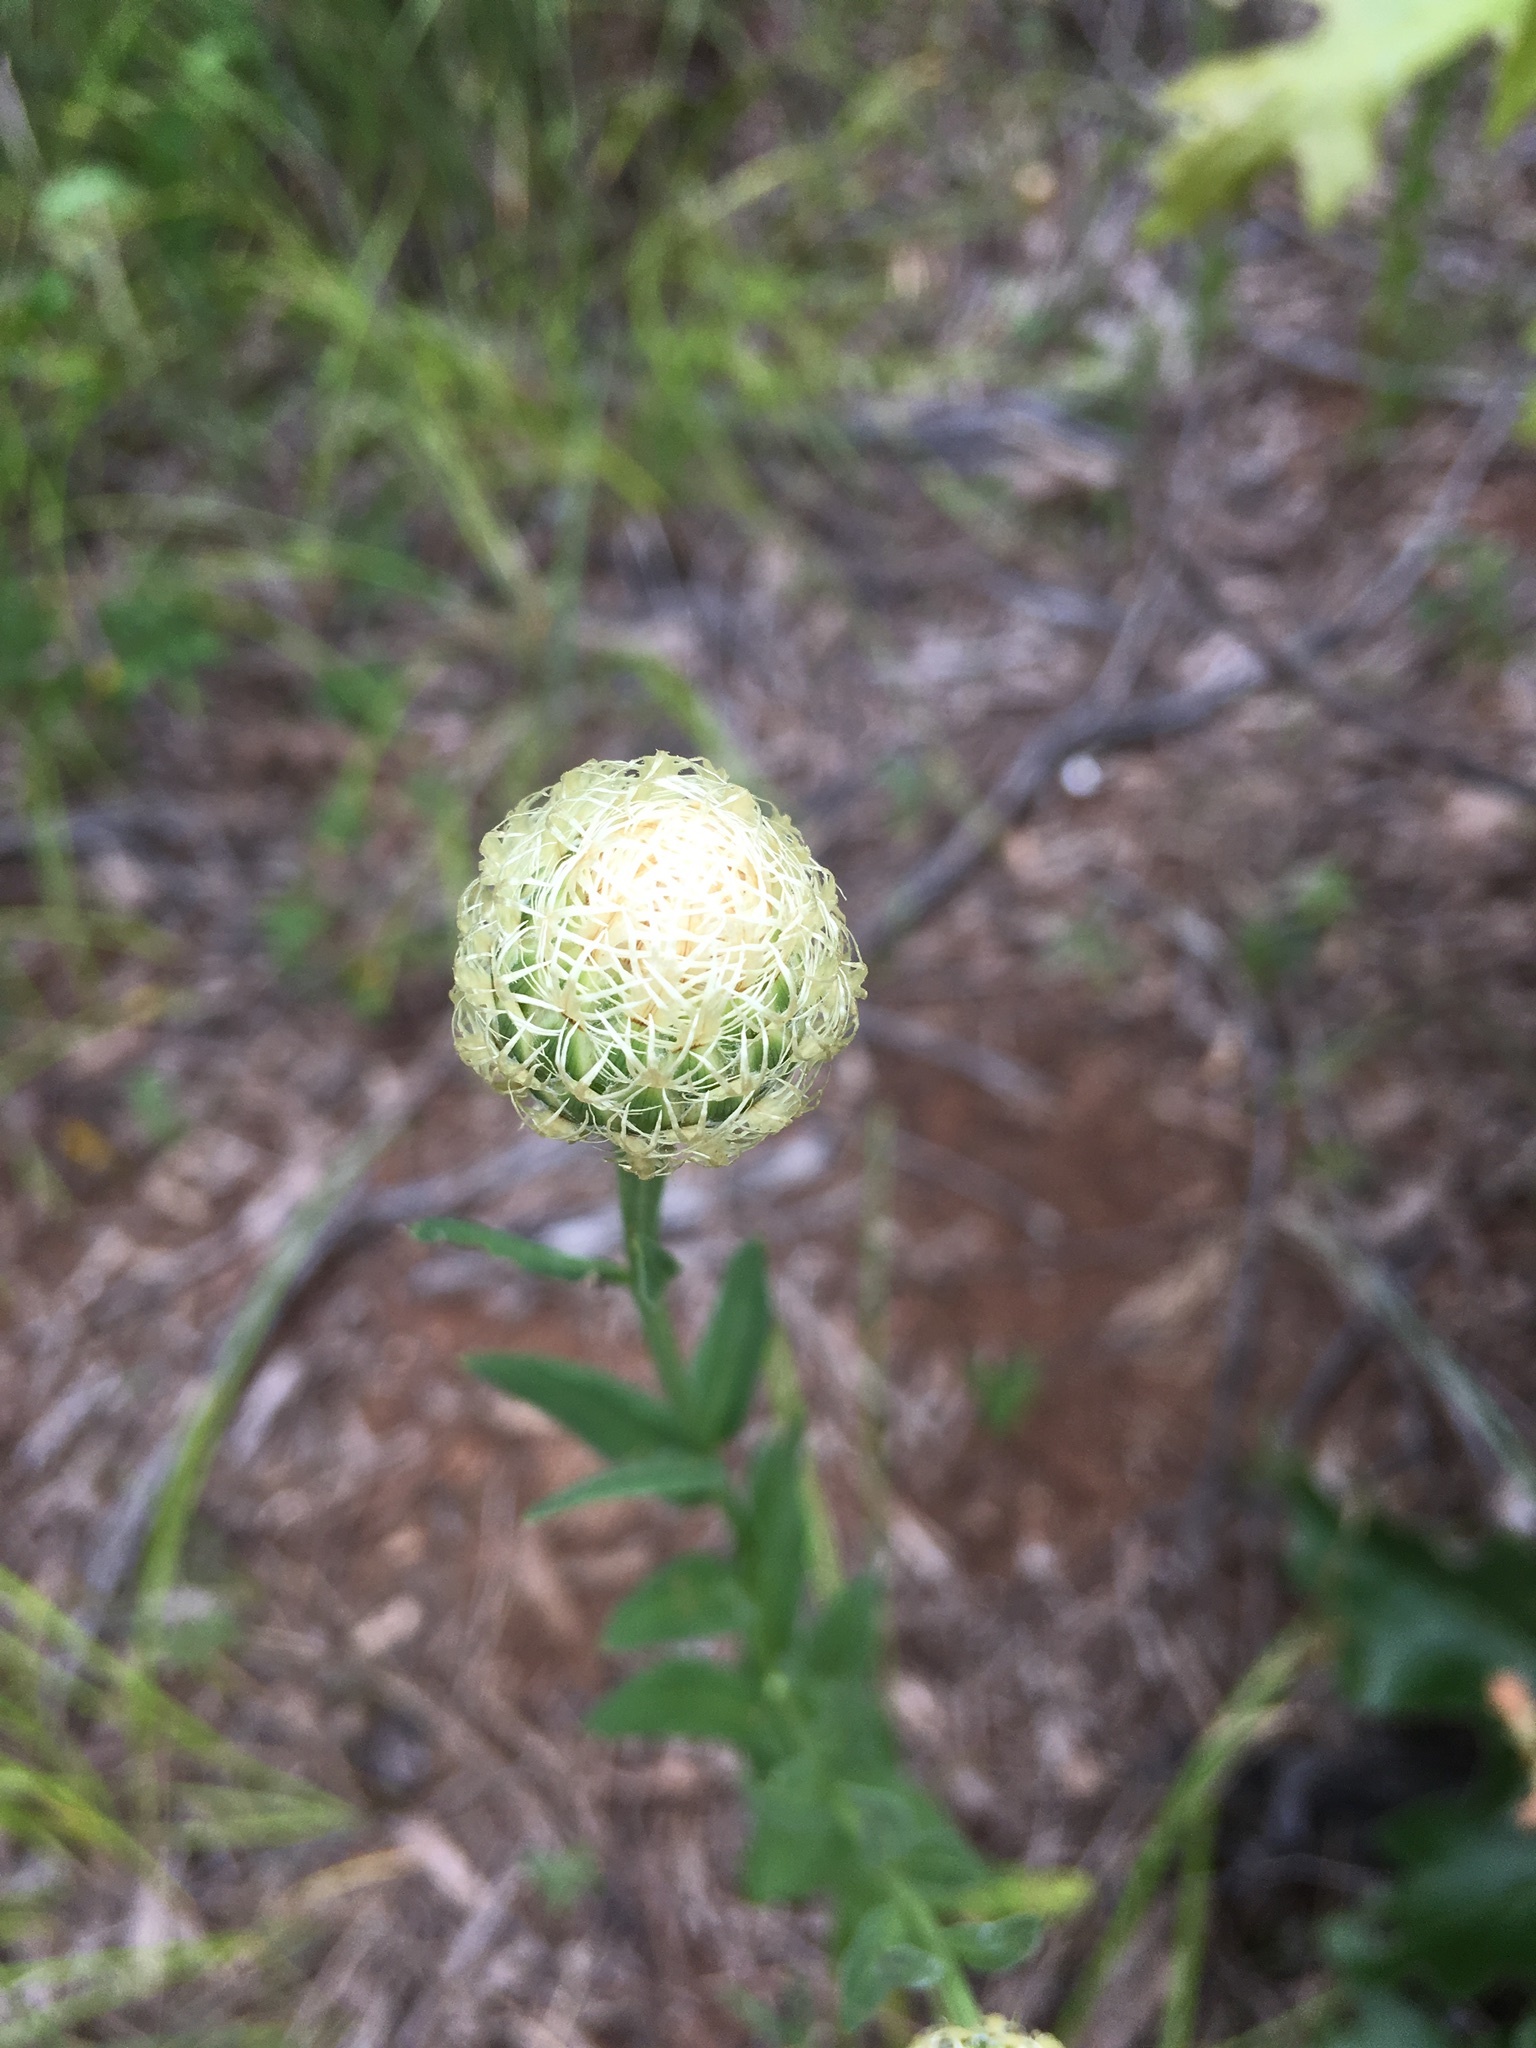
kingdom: Plantae
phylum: Tracheophyta
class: Magnoliopsida
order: Asterales
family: Asteraceae
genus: Plectocephalus
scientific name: Plectocephalus americanus
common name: American basket-flower
